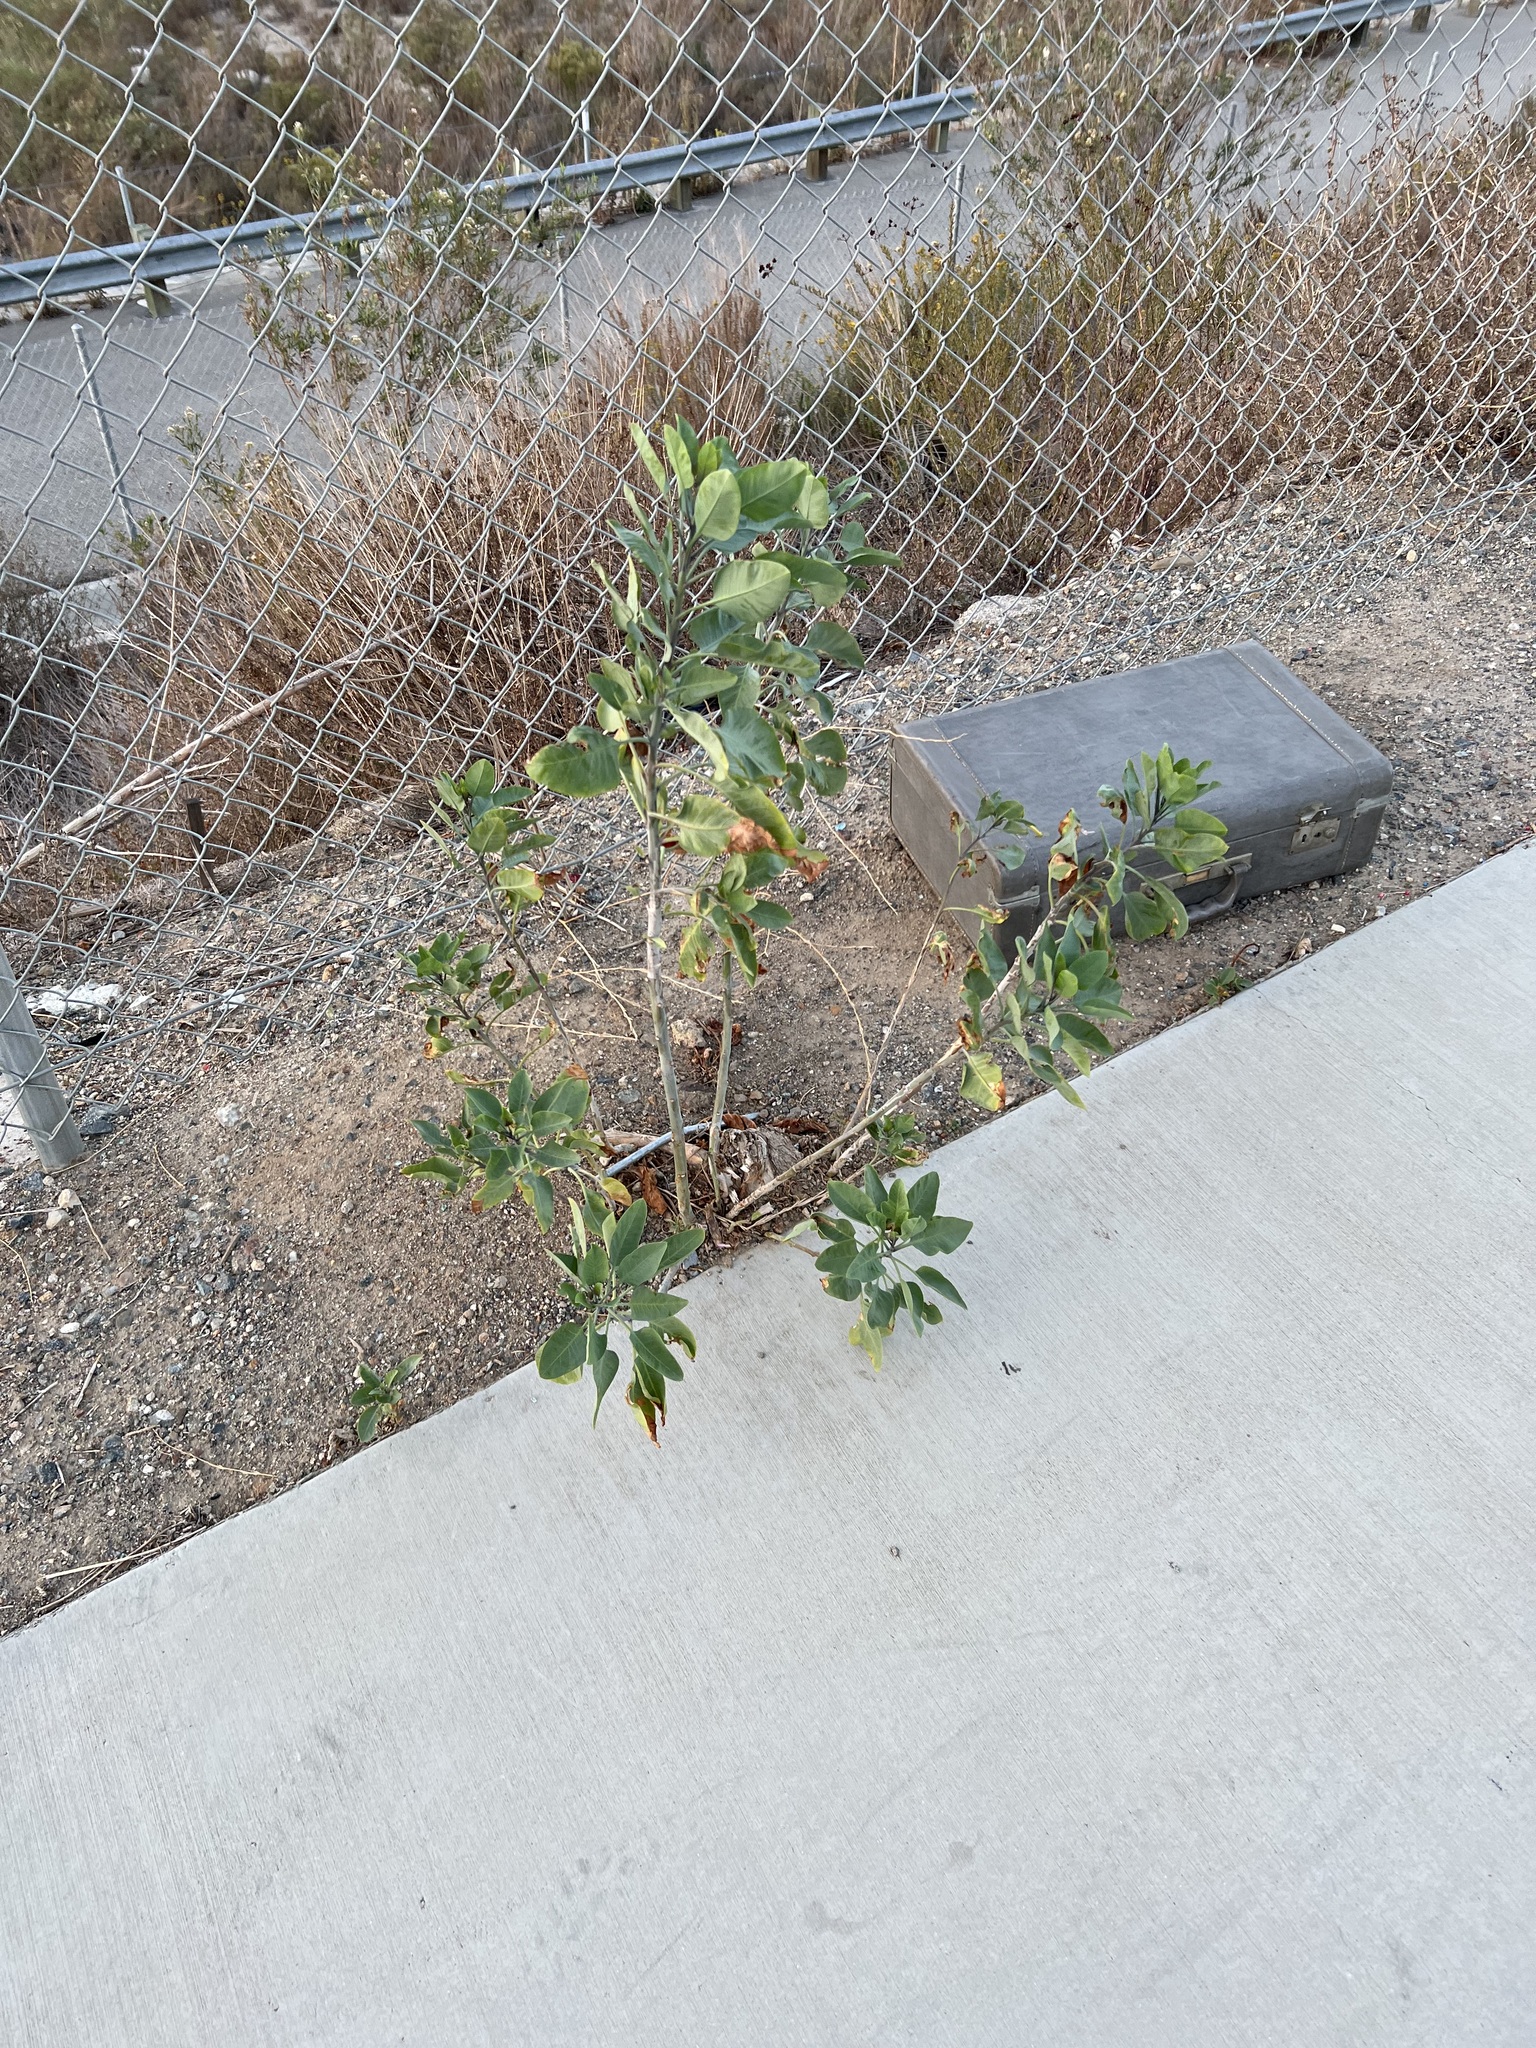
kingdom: Plantae
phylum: Tracheophyta
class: Magnoliopsida
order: Solanales
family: Solanaceae
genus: Nicotiana
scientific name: Nicotiana glauca
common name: Tree tobacco
